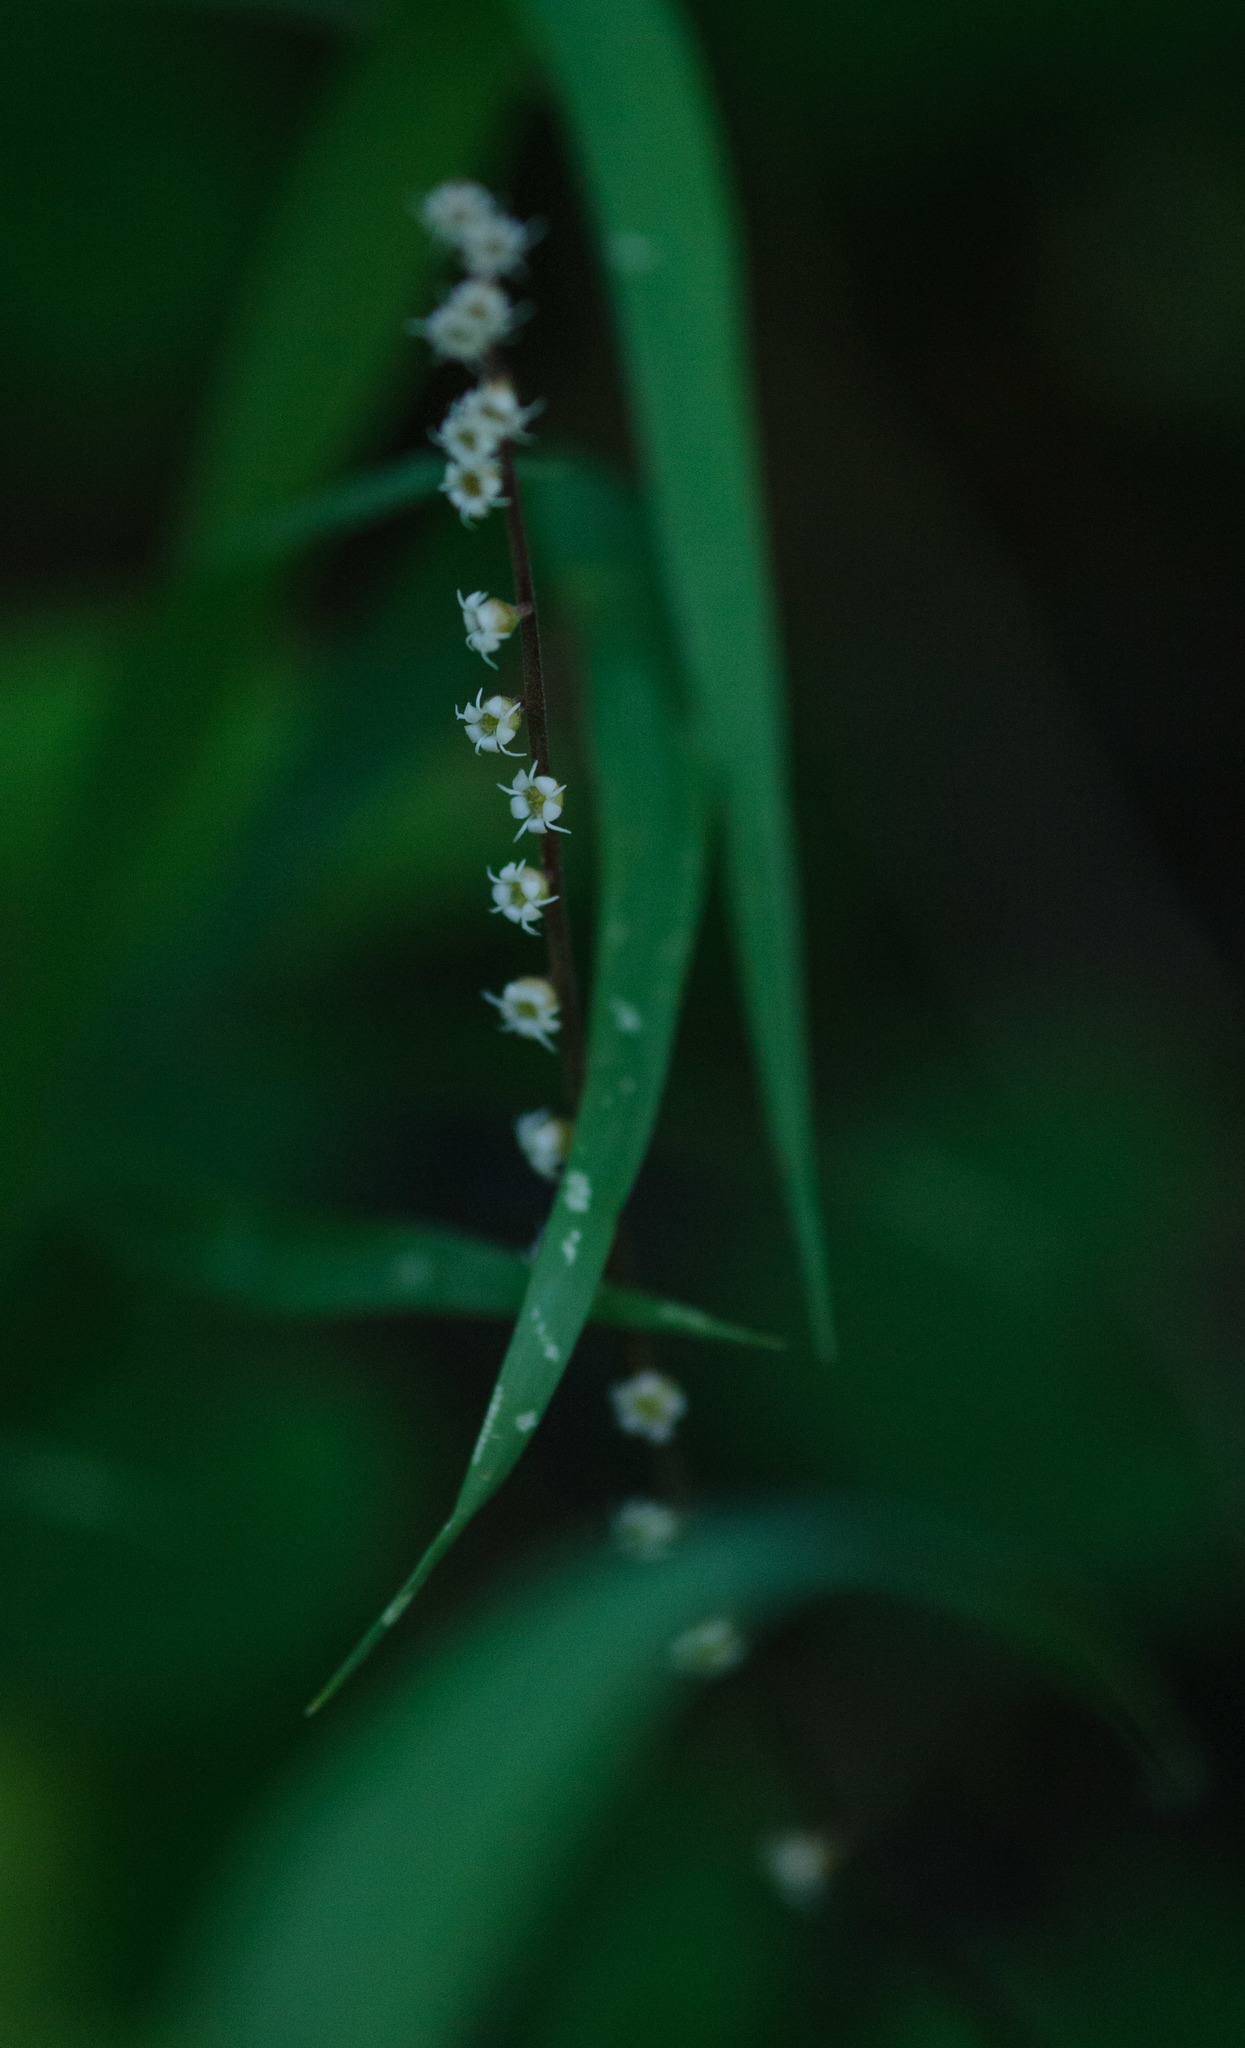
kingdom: Plantae
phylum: Tracheophyta
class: Magnoliopsida
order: Saxifragales
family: Saxifragaceae
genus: Ozomelis
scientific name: Ozomelis stauropetala
